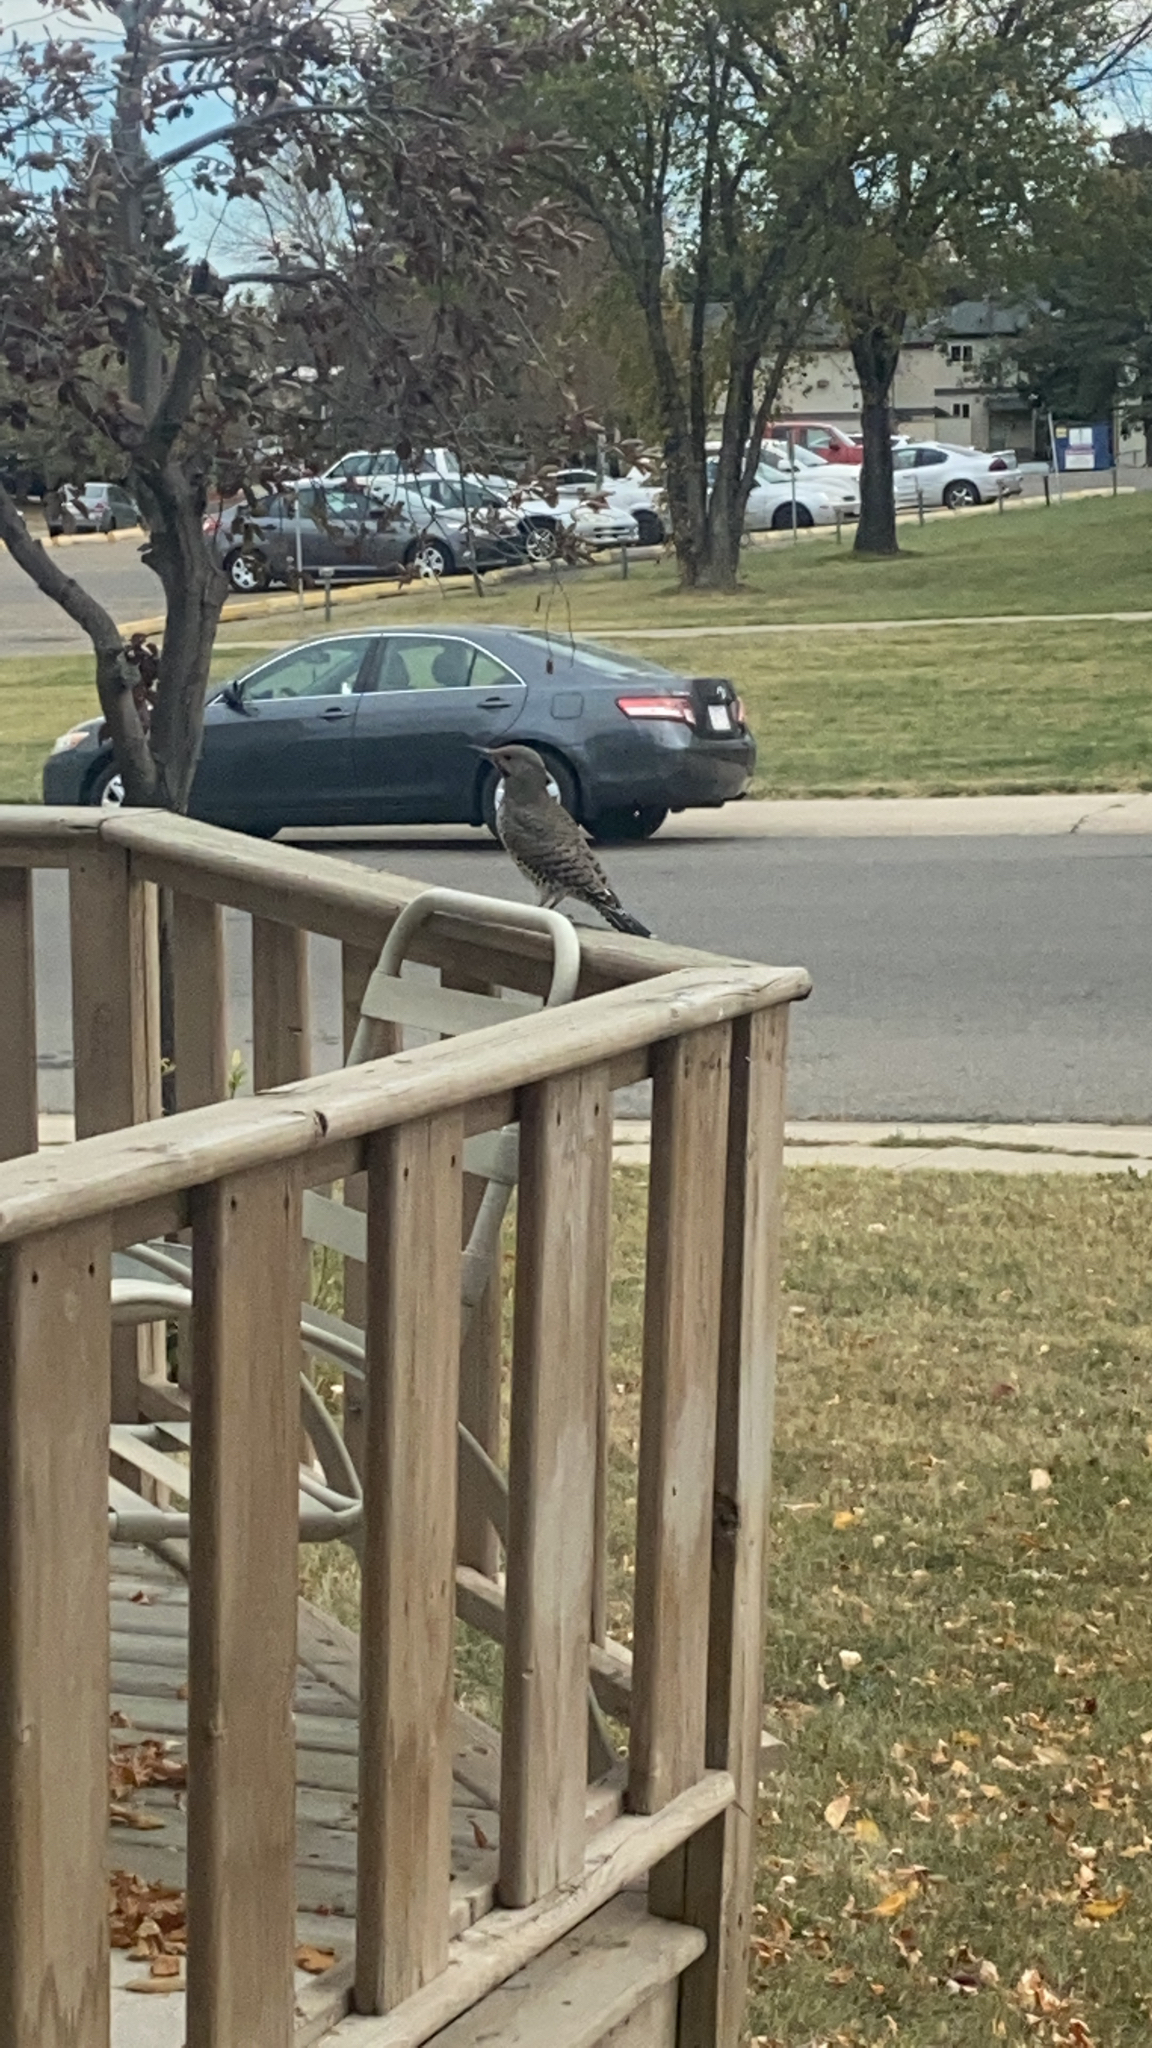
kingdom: Animalia
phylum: Chordata
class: Aves
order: Piciformes
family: Picidae
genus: Colaptes
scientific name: Colaptes auratus
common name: Northern flicker
